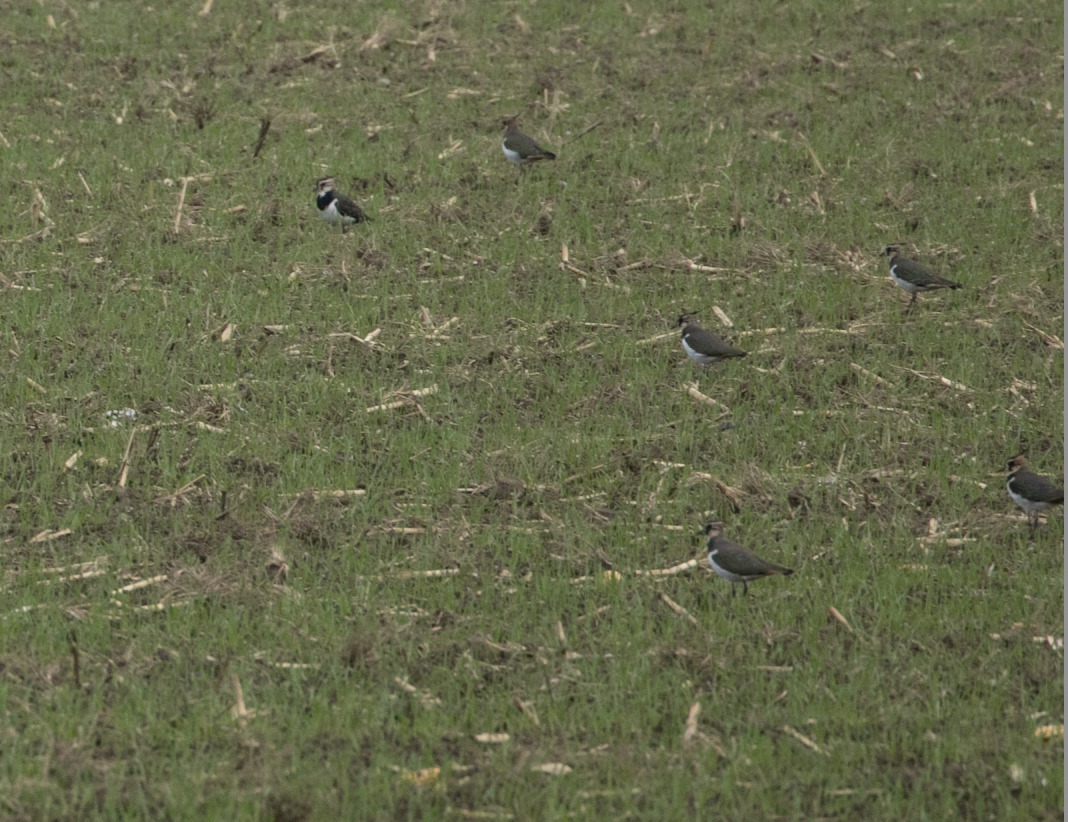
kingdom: Animalia
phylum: Chordata
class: Aves
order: Charadriiformes
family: Charadriidae
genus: Vanellus
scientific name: Vanellus vanellus
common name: Northern lapwing
